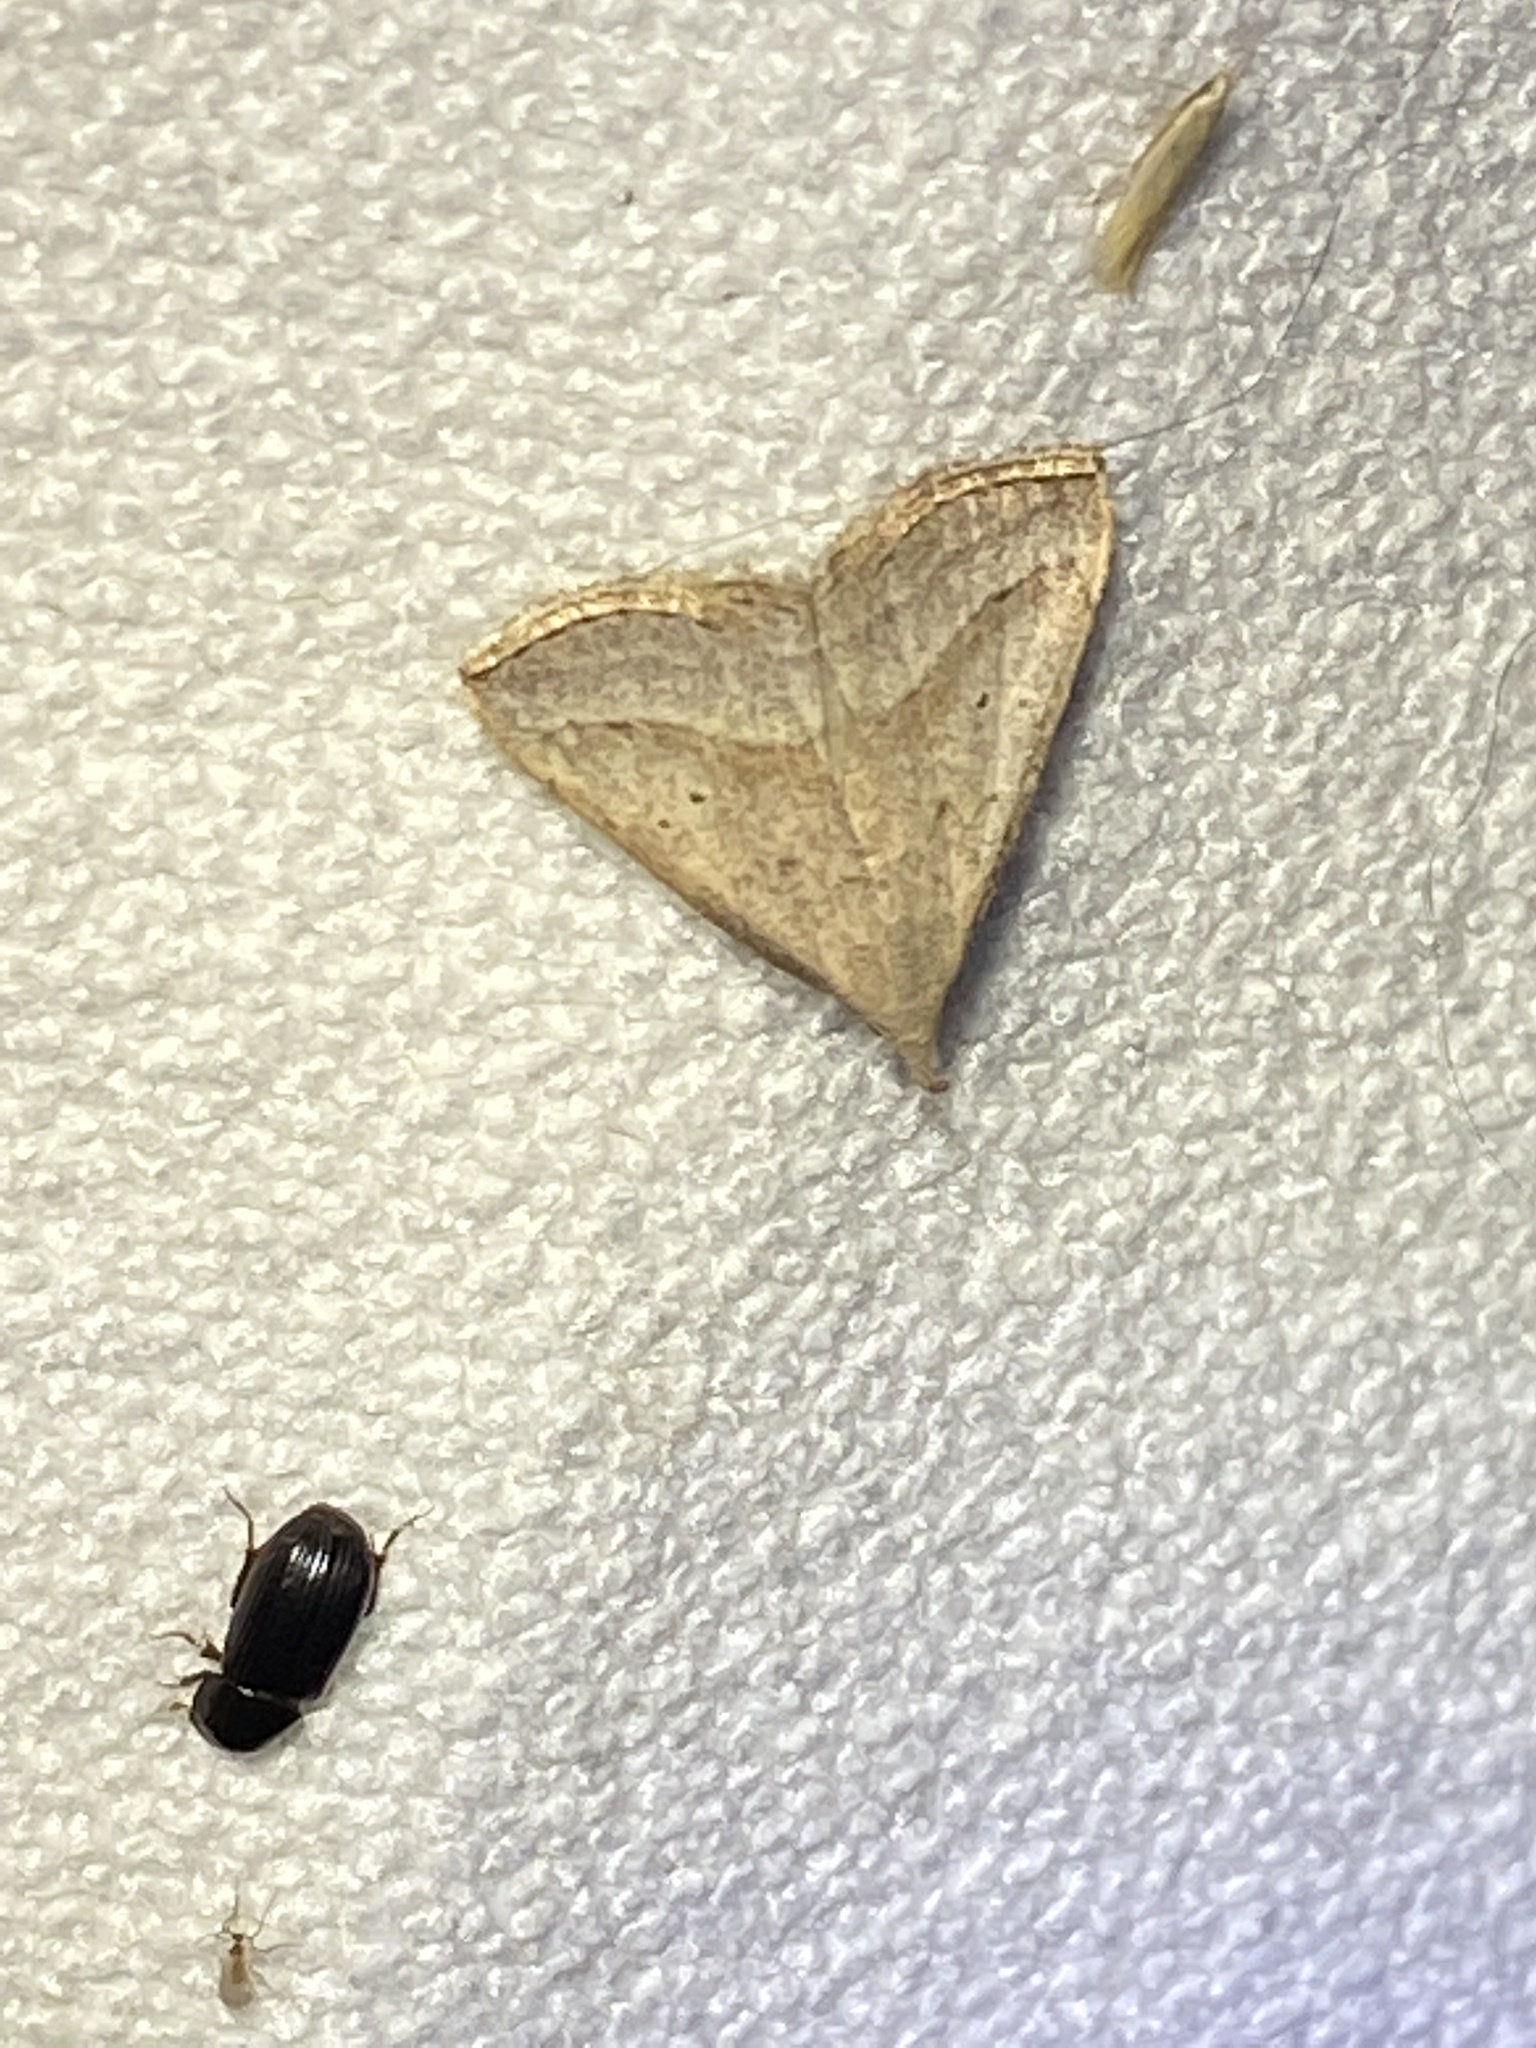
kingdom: Animalia
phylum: Arthropoda
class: Insecta
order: Lepidoptera
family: Erebidae
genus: Macrochilo
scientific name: Macrochilo hypocritalis
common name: Twin-dotted owlet
